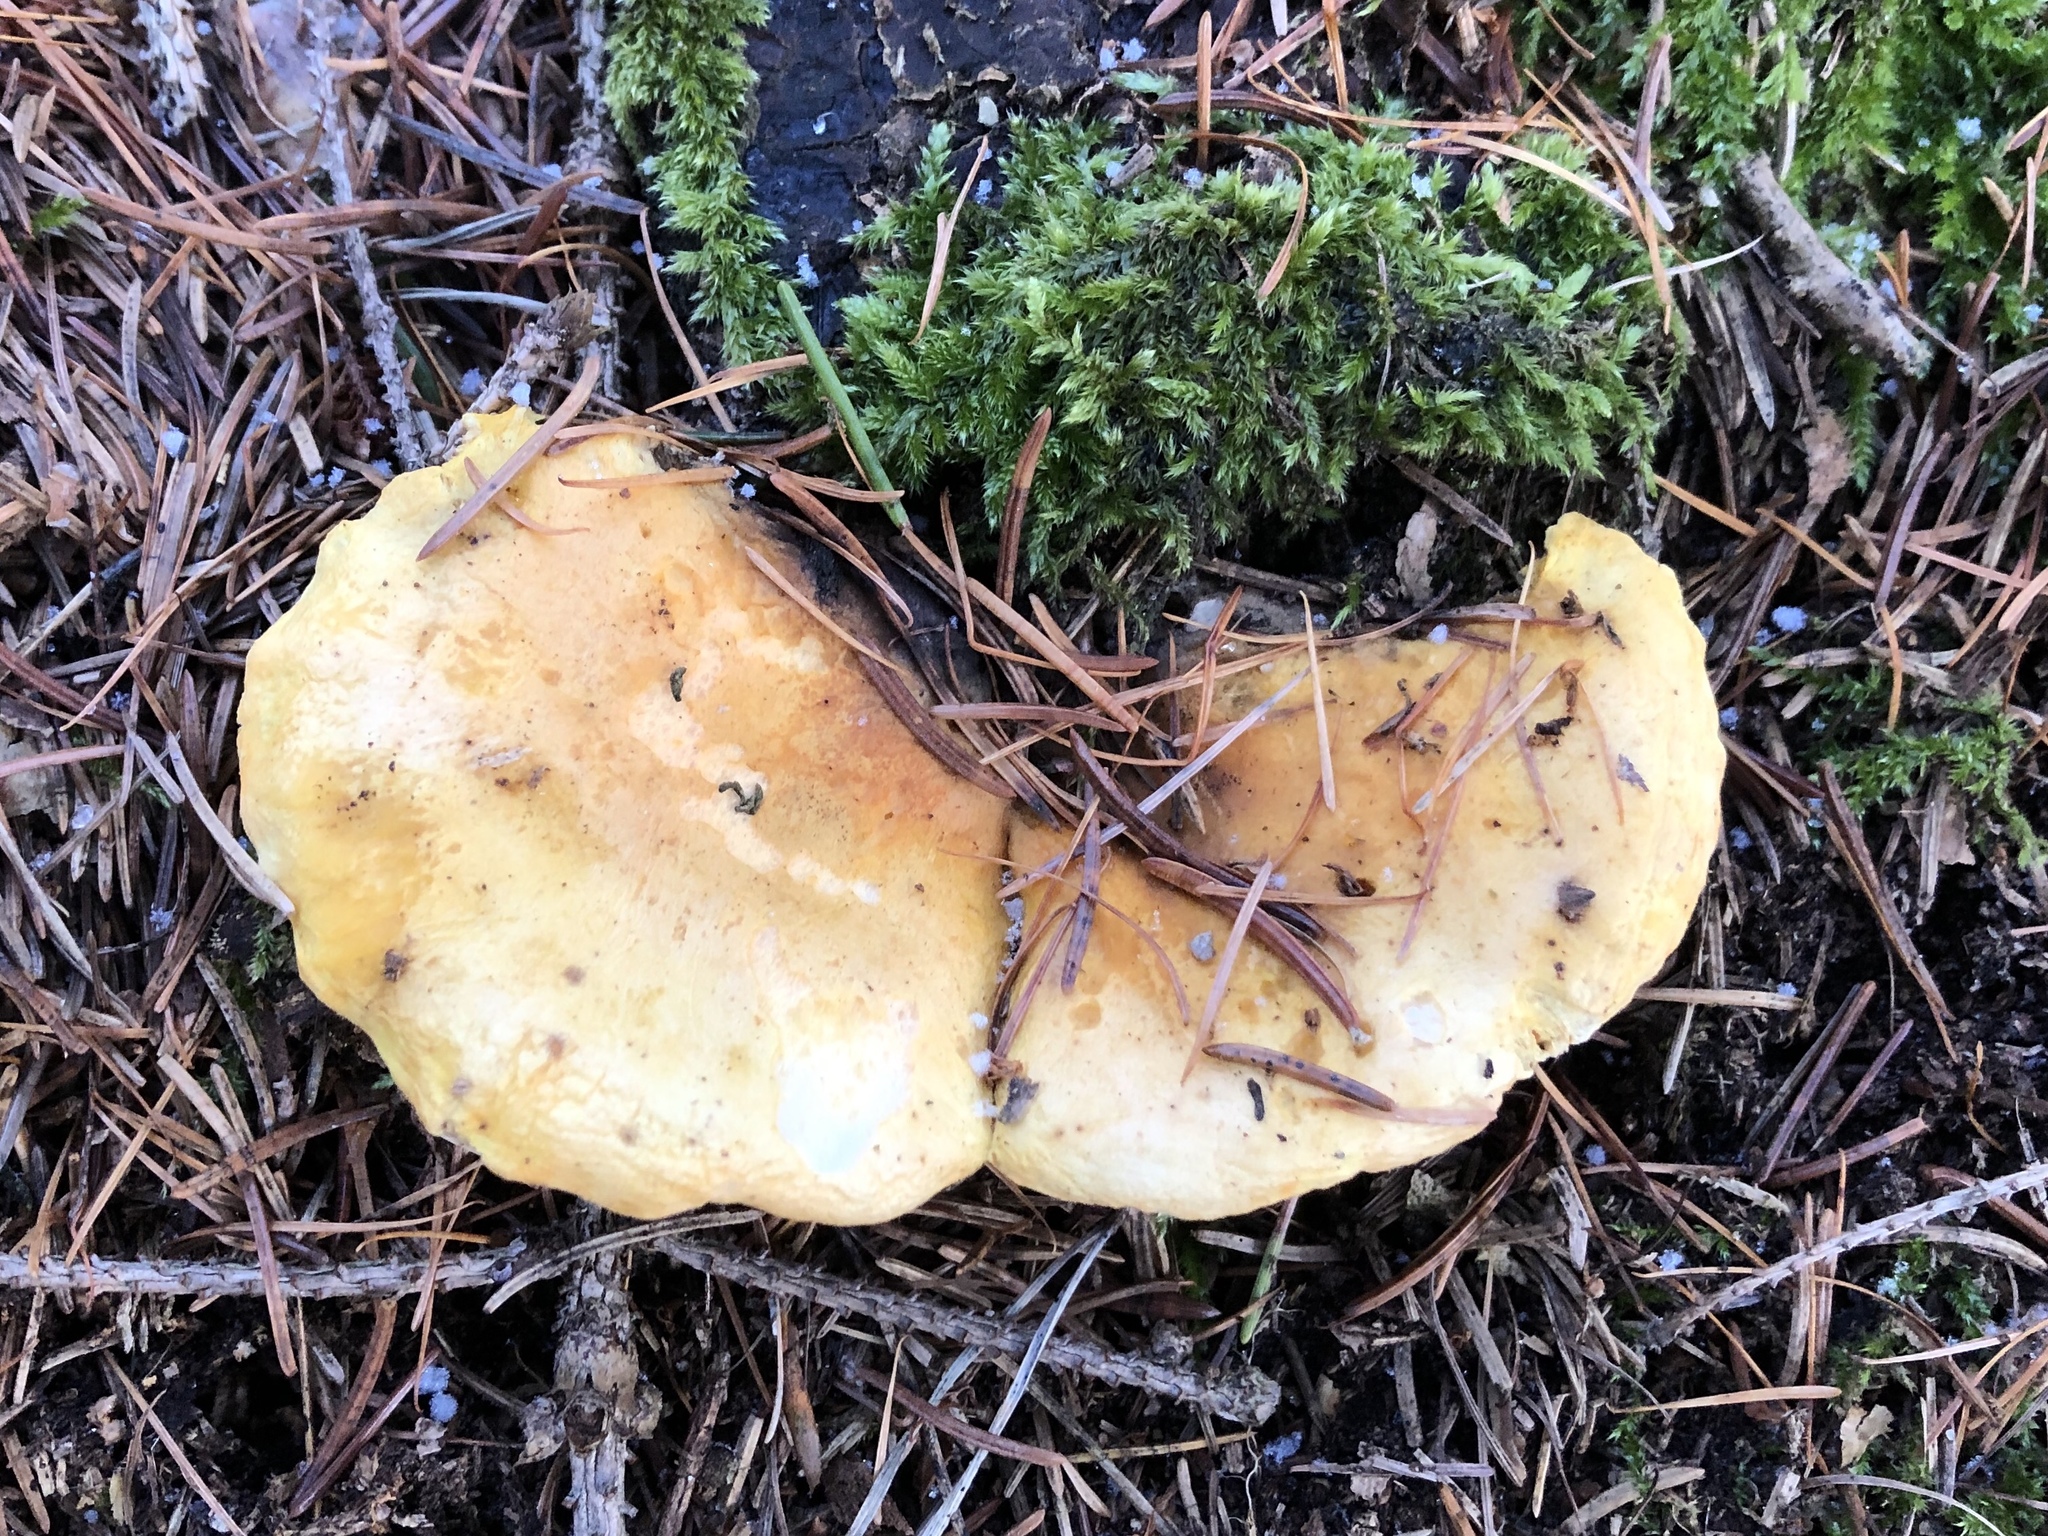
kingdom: Fungi
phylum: Basidiomycota
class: Agaricomycetes
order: Boletales
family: Hygrophoropsidaceae
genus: Hygrophoropsis
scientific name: Hygrophoropsis aurantiaca
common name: False chanterelle
